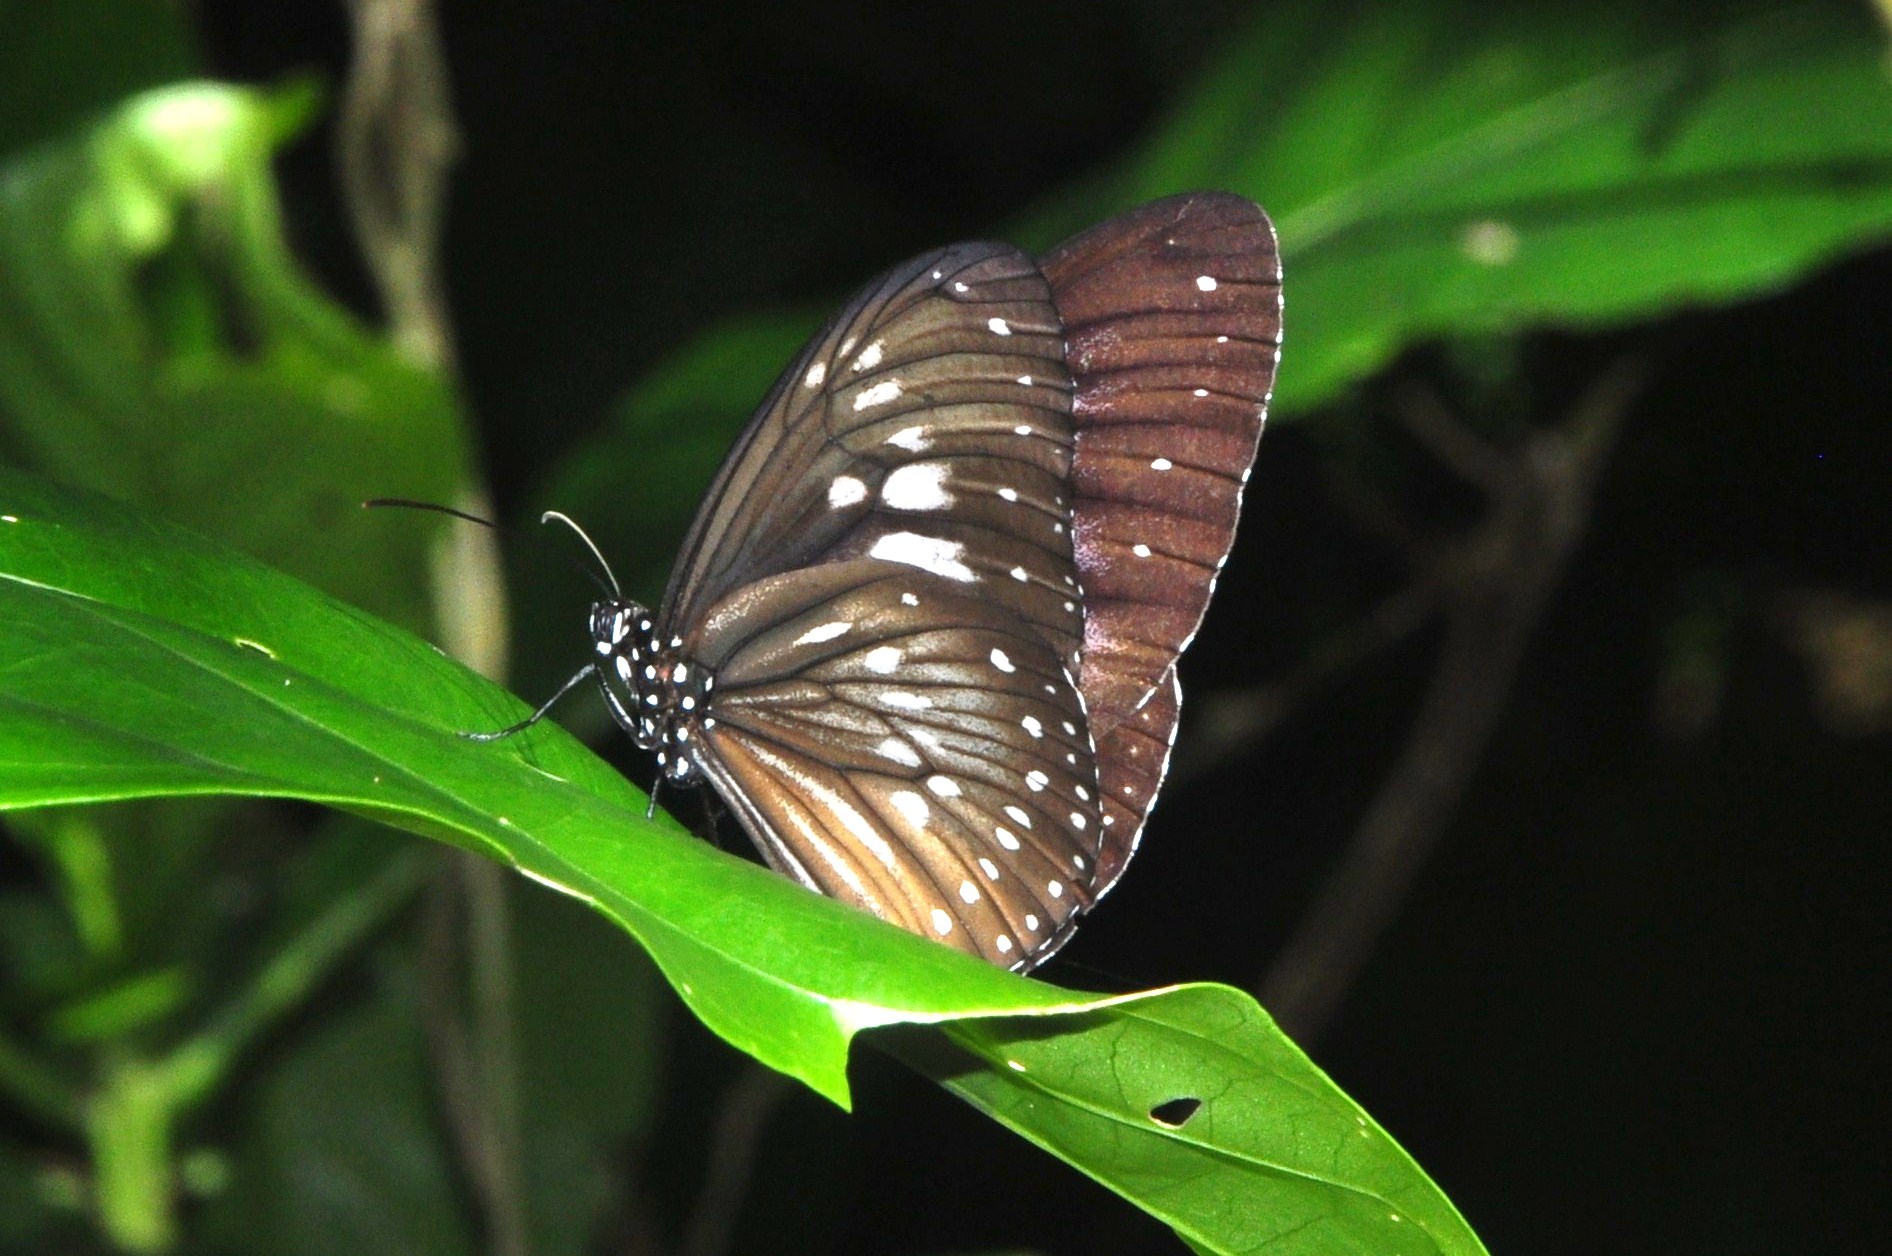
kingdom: Animalia
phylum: Arthropoda
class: Insecta
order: Lepidoptera
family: Nymphalidae
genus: Euploea
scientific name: Euploea algea
